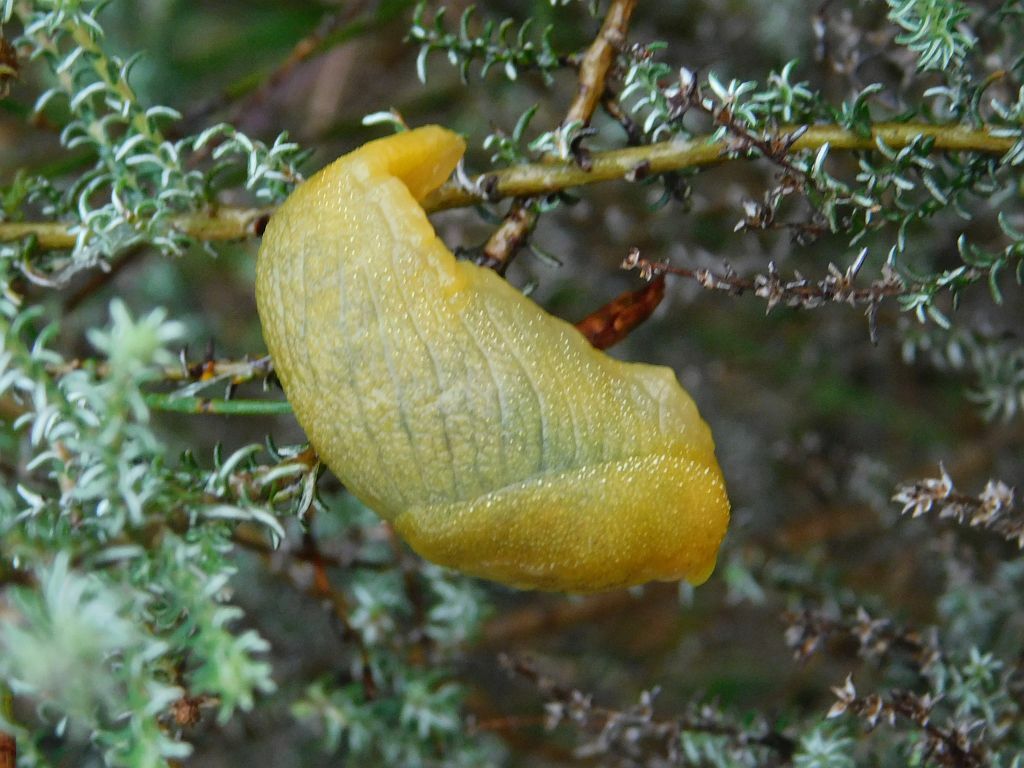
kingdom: Animalia
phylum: Mollusca
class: Gastropoda
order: Stylommatophora
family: Oopeltidae
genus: Oopelta
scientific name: Oopelta flavescens
